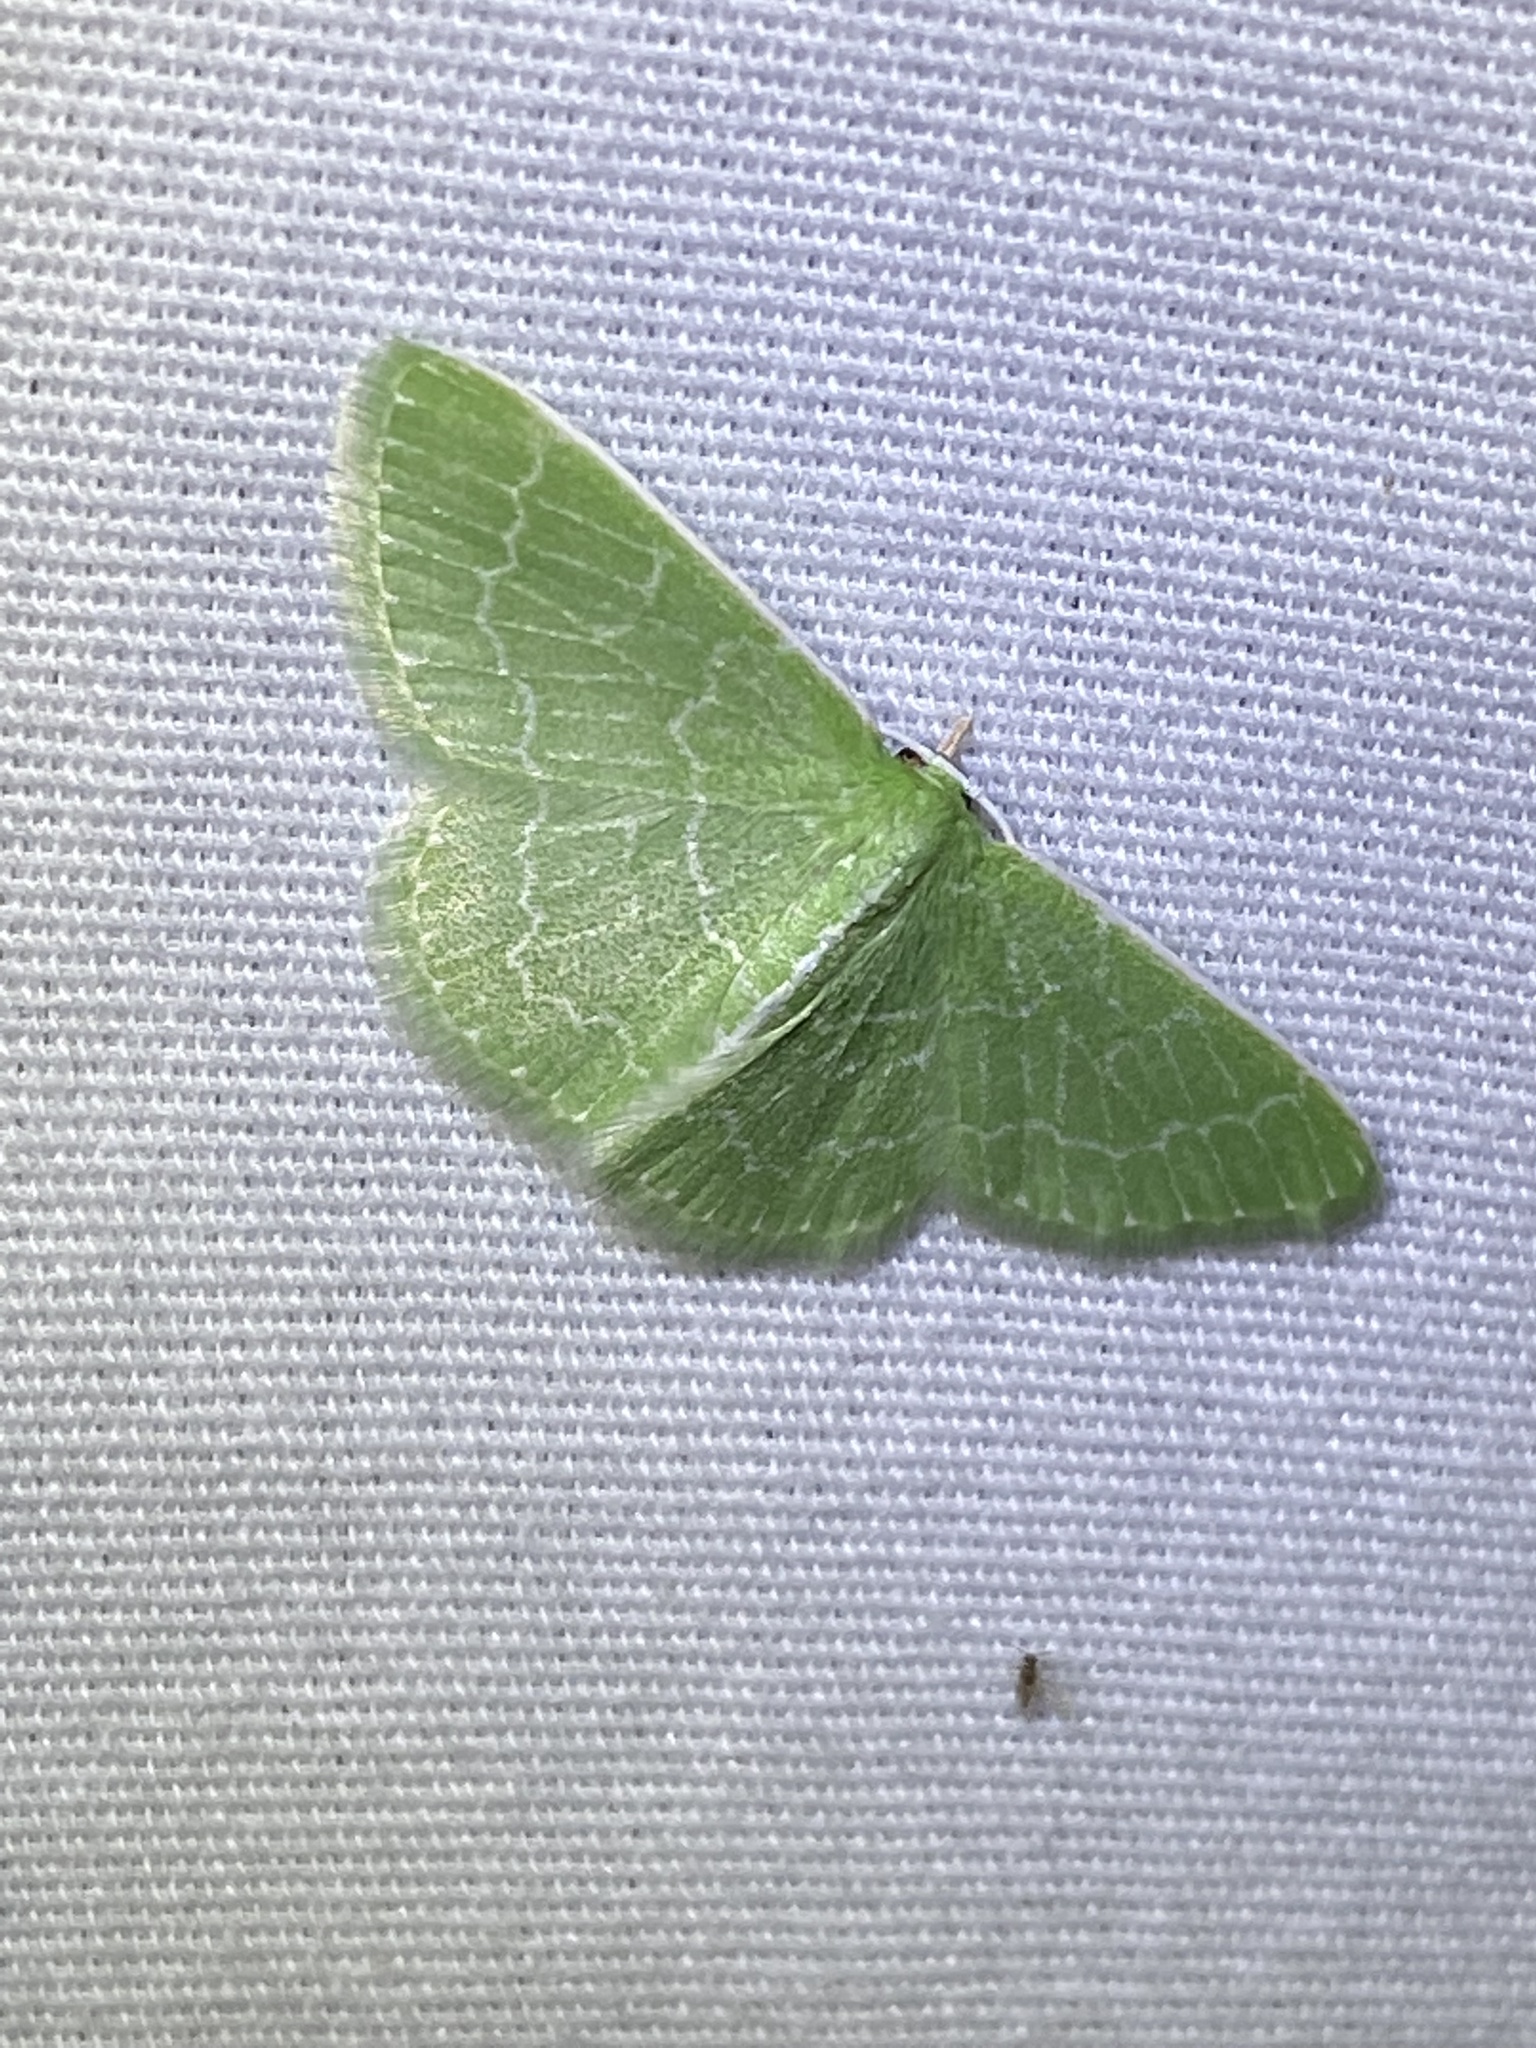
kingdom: Animalia
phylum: Arthropoda
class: Insecta
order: Lepidoptera
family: Geometridae
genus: Synchlora
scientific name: Synchlora frondaria
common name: Southern emerald
